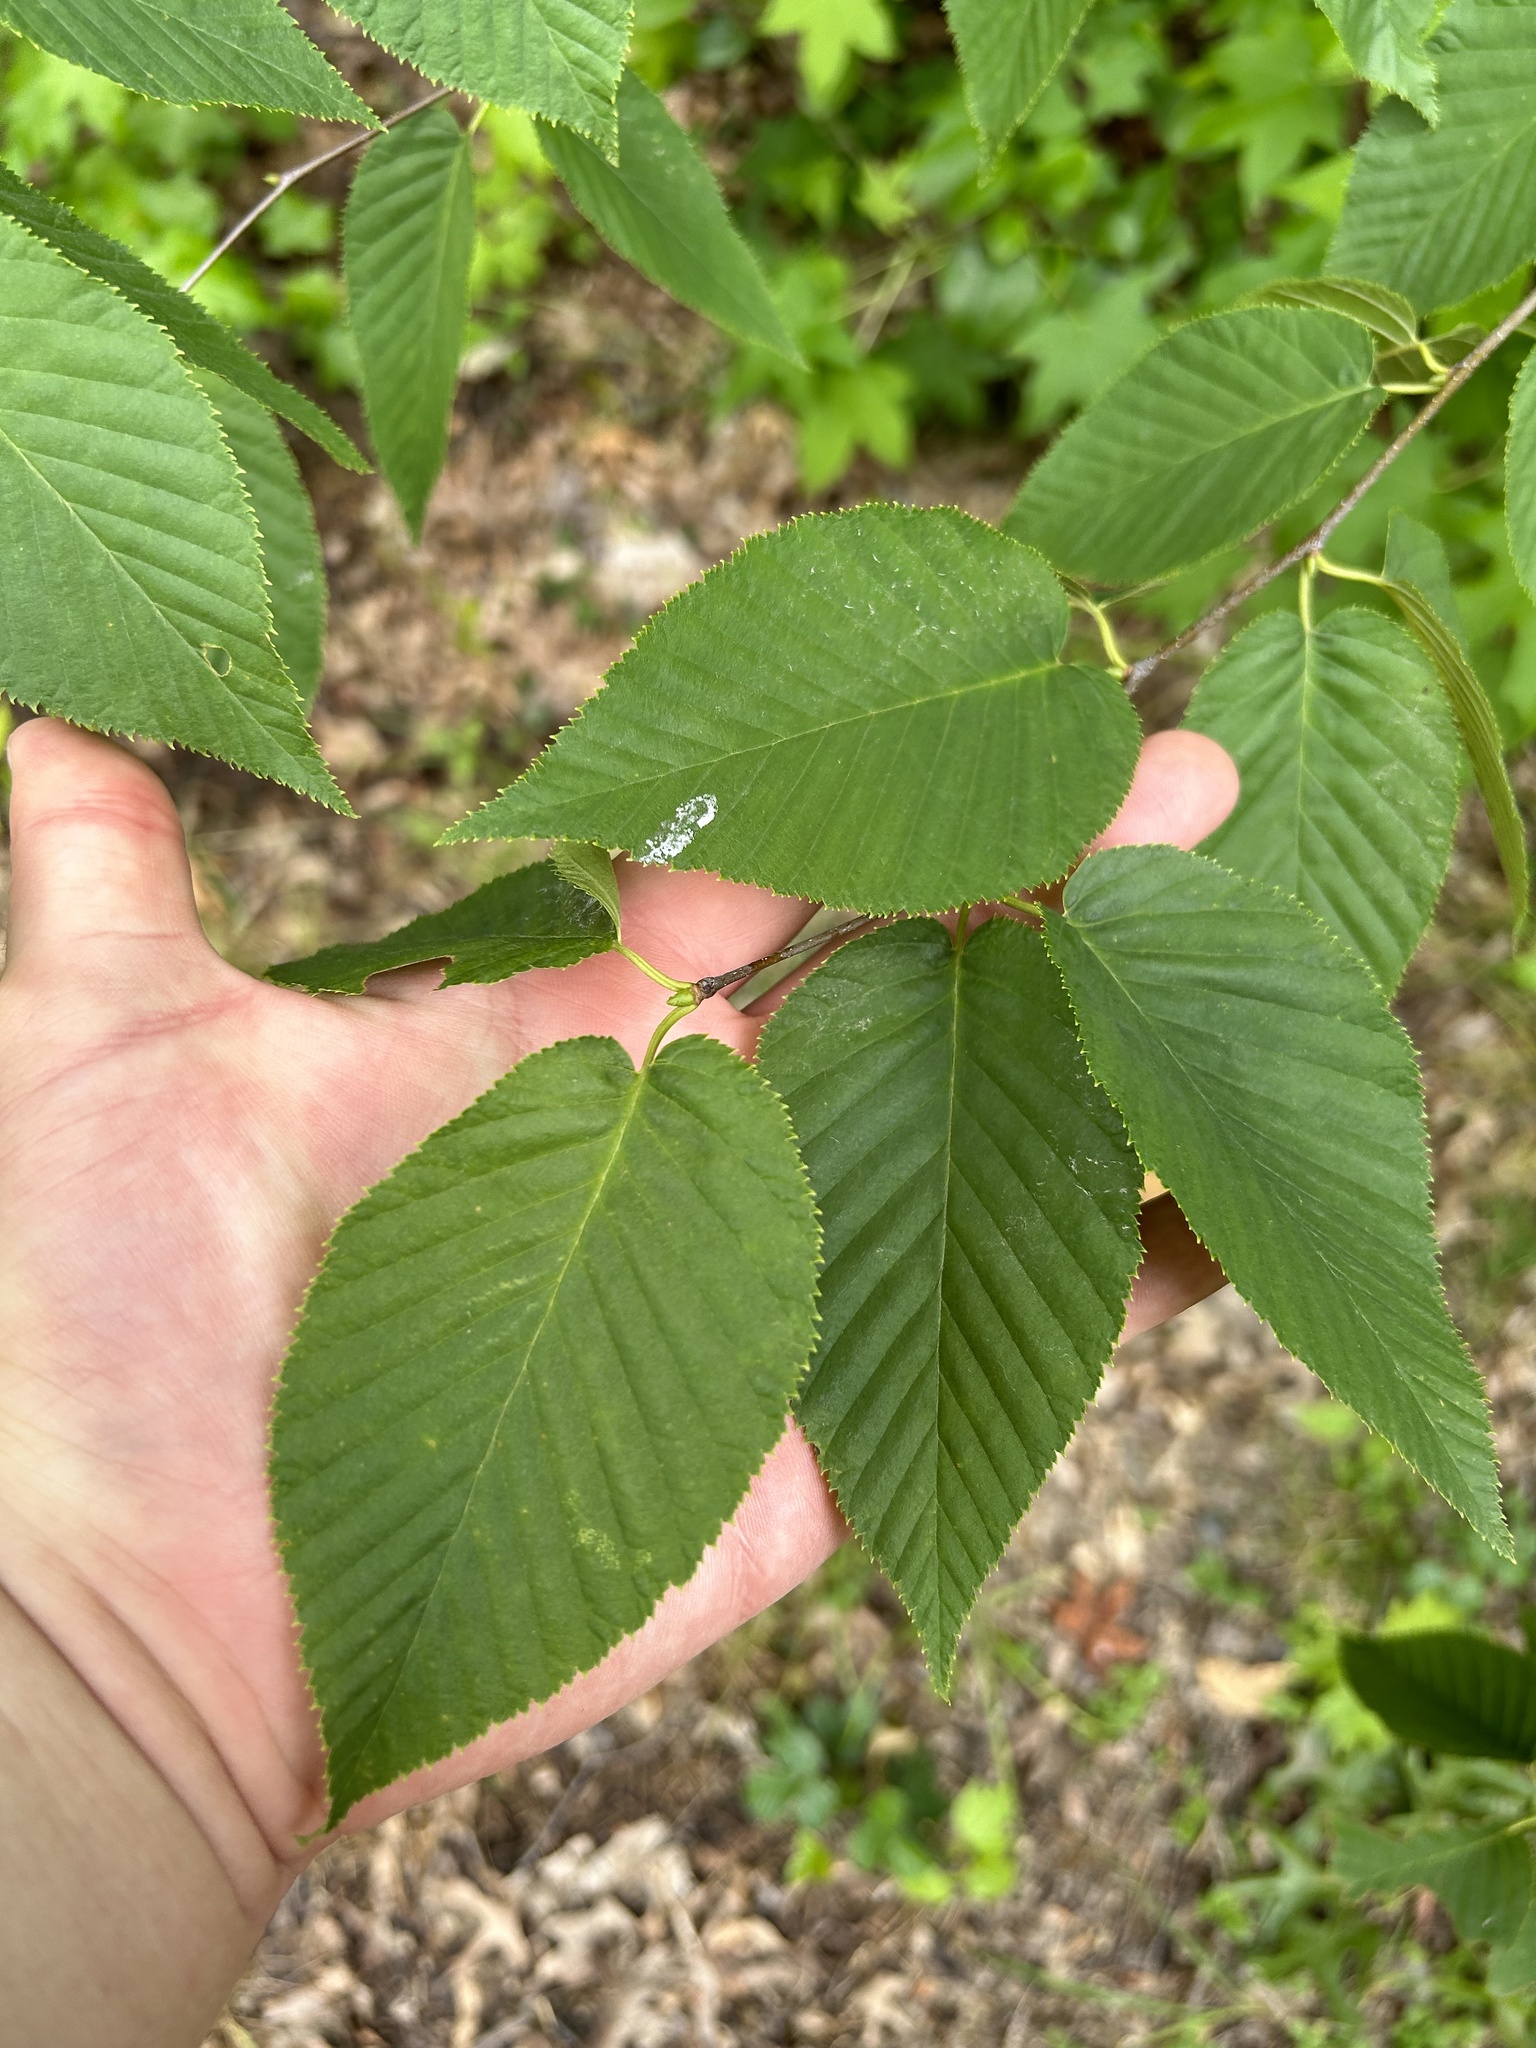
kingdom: Plantae
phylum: Tracheophyta
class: Magnoliopsida
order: Fagales
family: Betulaceae
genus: Betula
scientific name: Betula lenta
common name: Black birch
